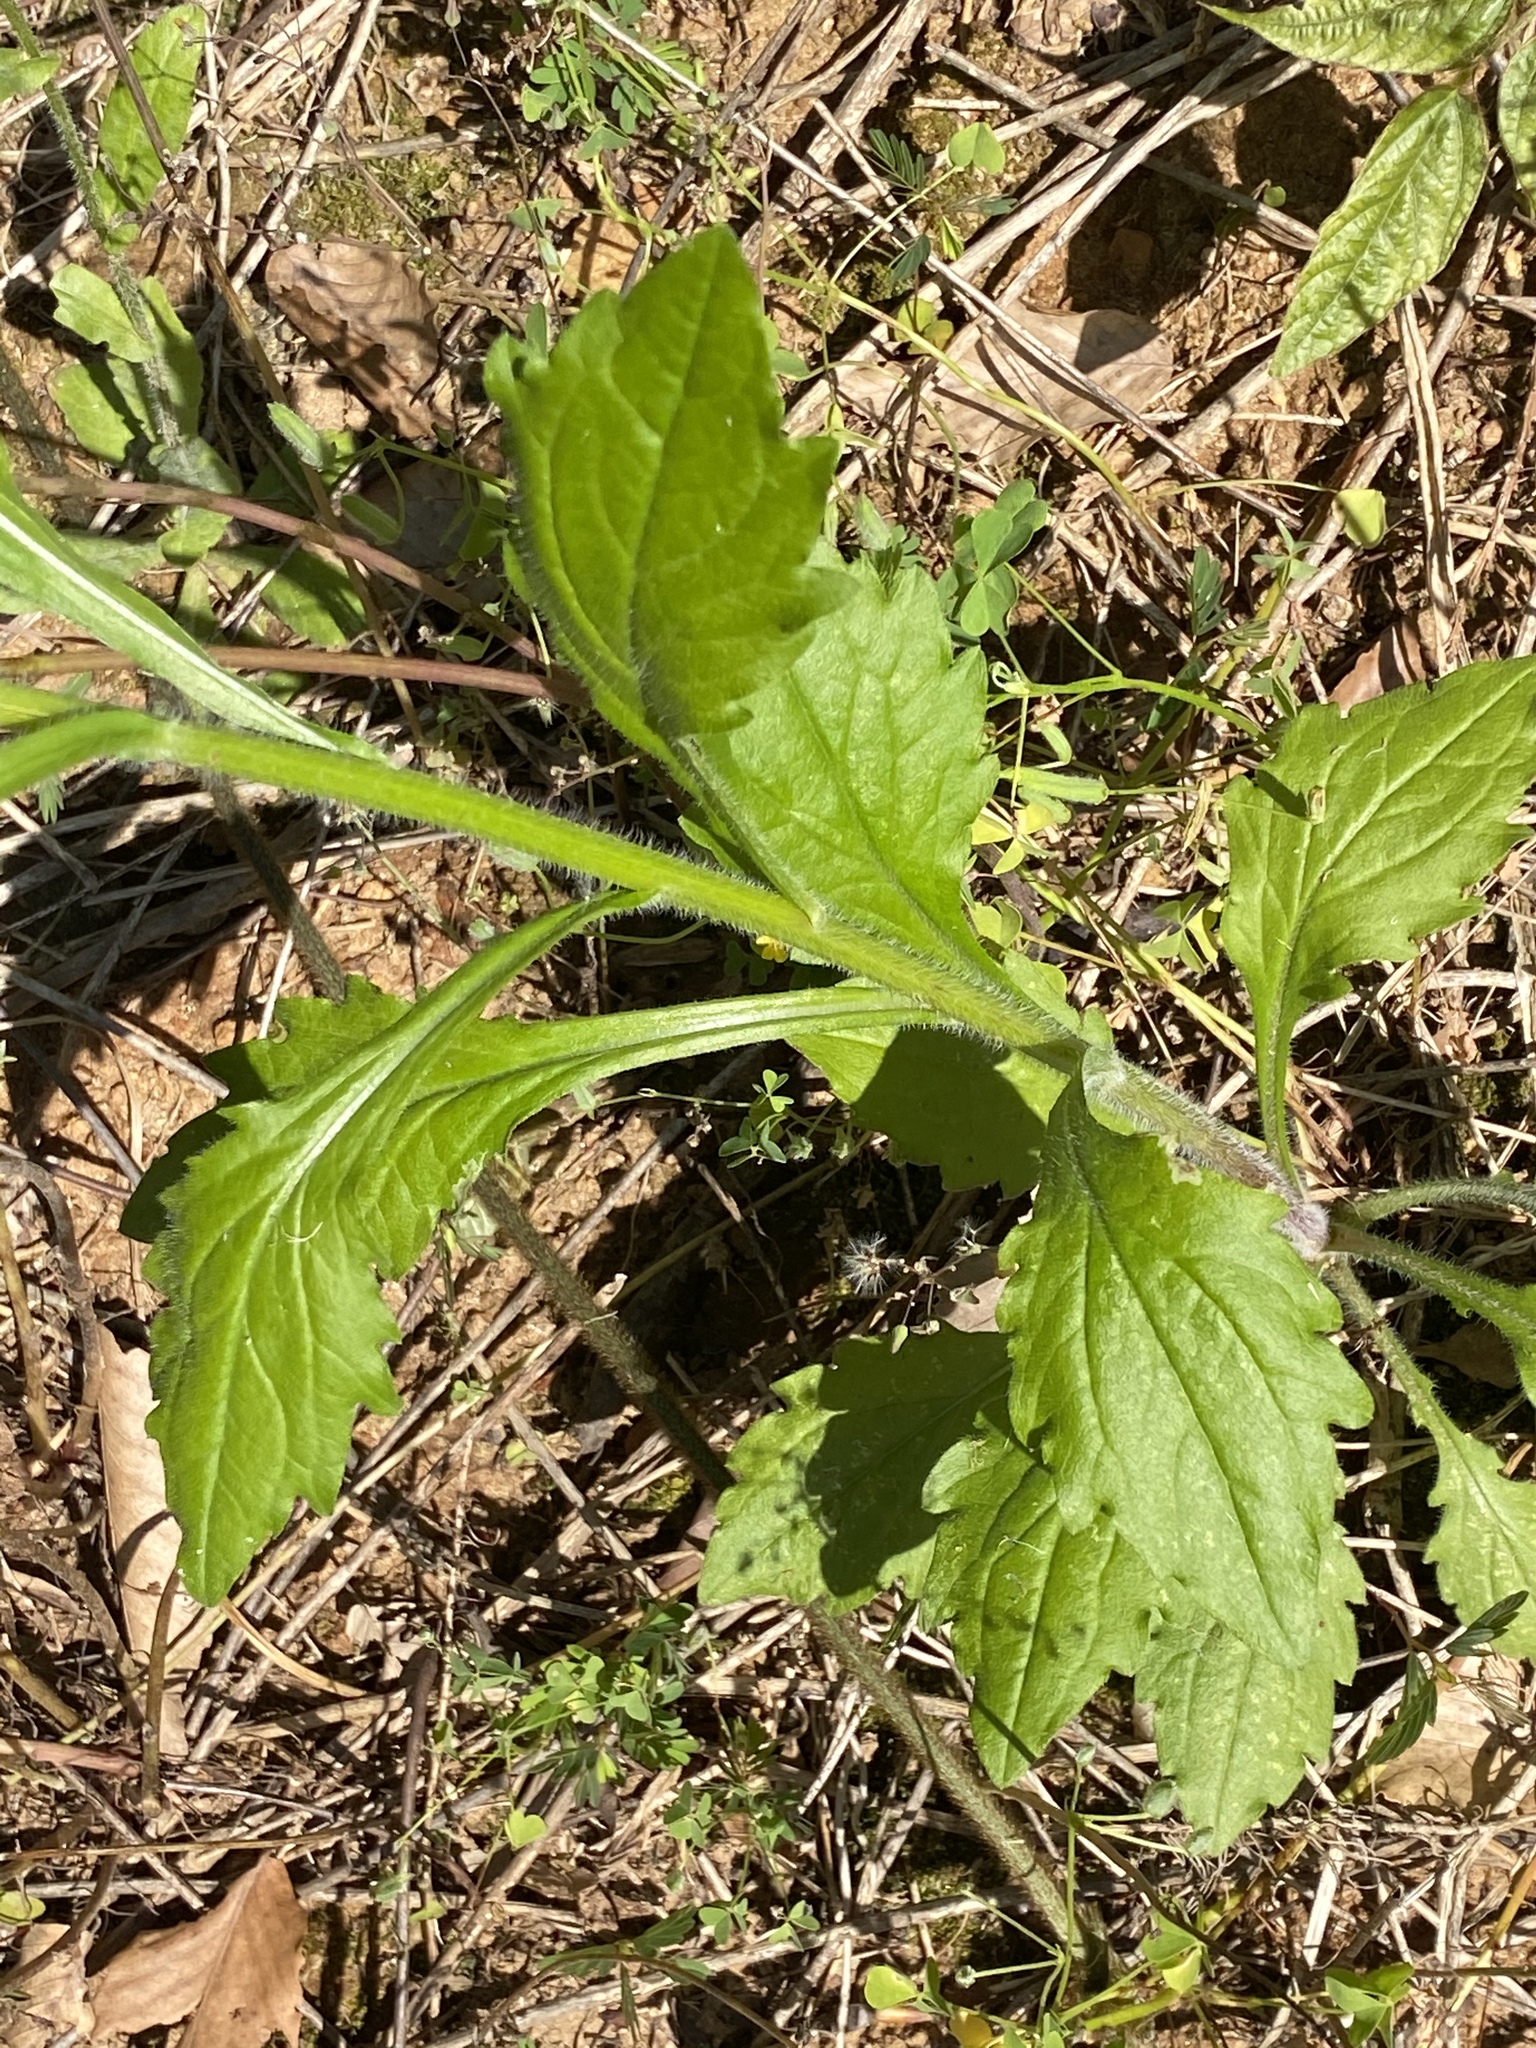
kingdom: Plantae
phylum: Tracheophyta
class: Magnoliopsida
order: Asterales
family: Asteraceae
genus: Erigeron
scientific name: Erigeron annuus
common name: Tall fleabane
